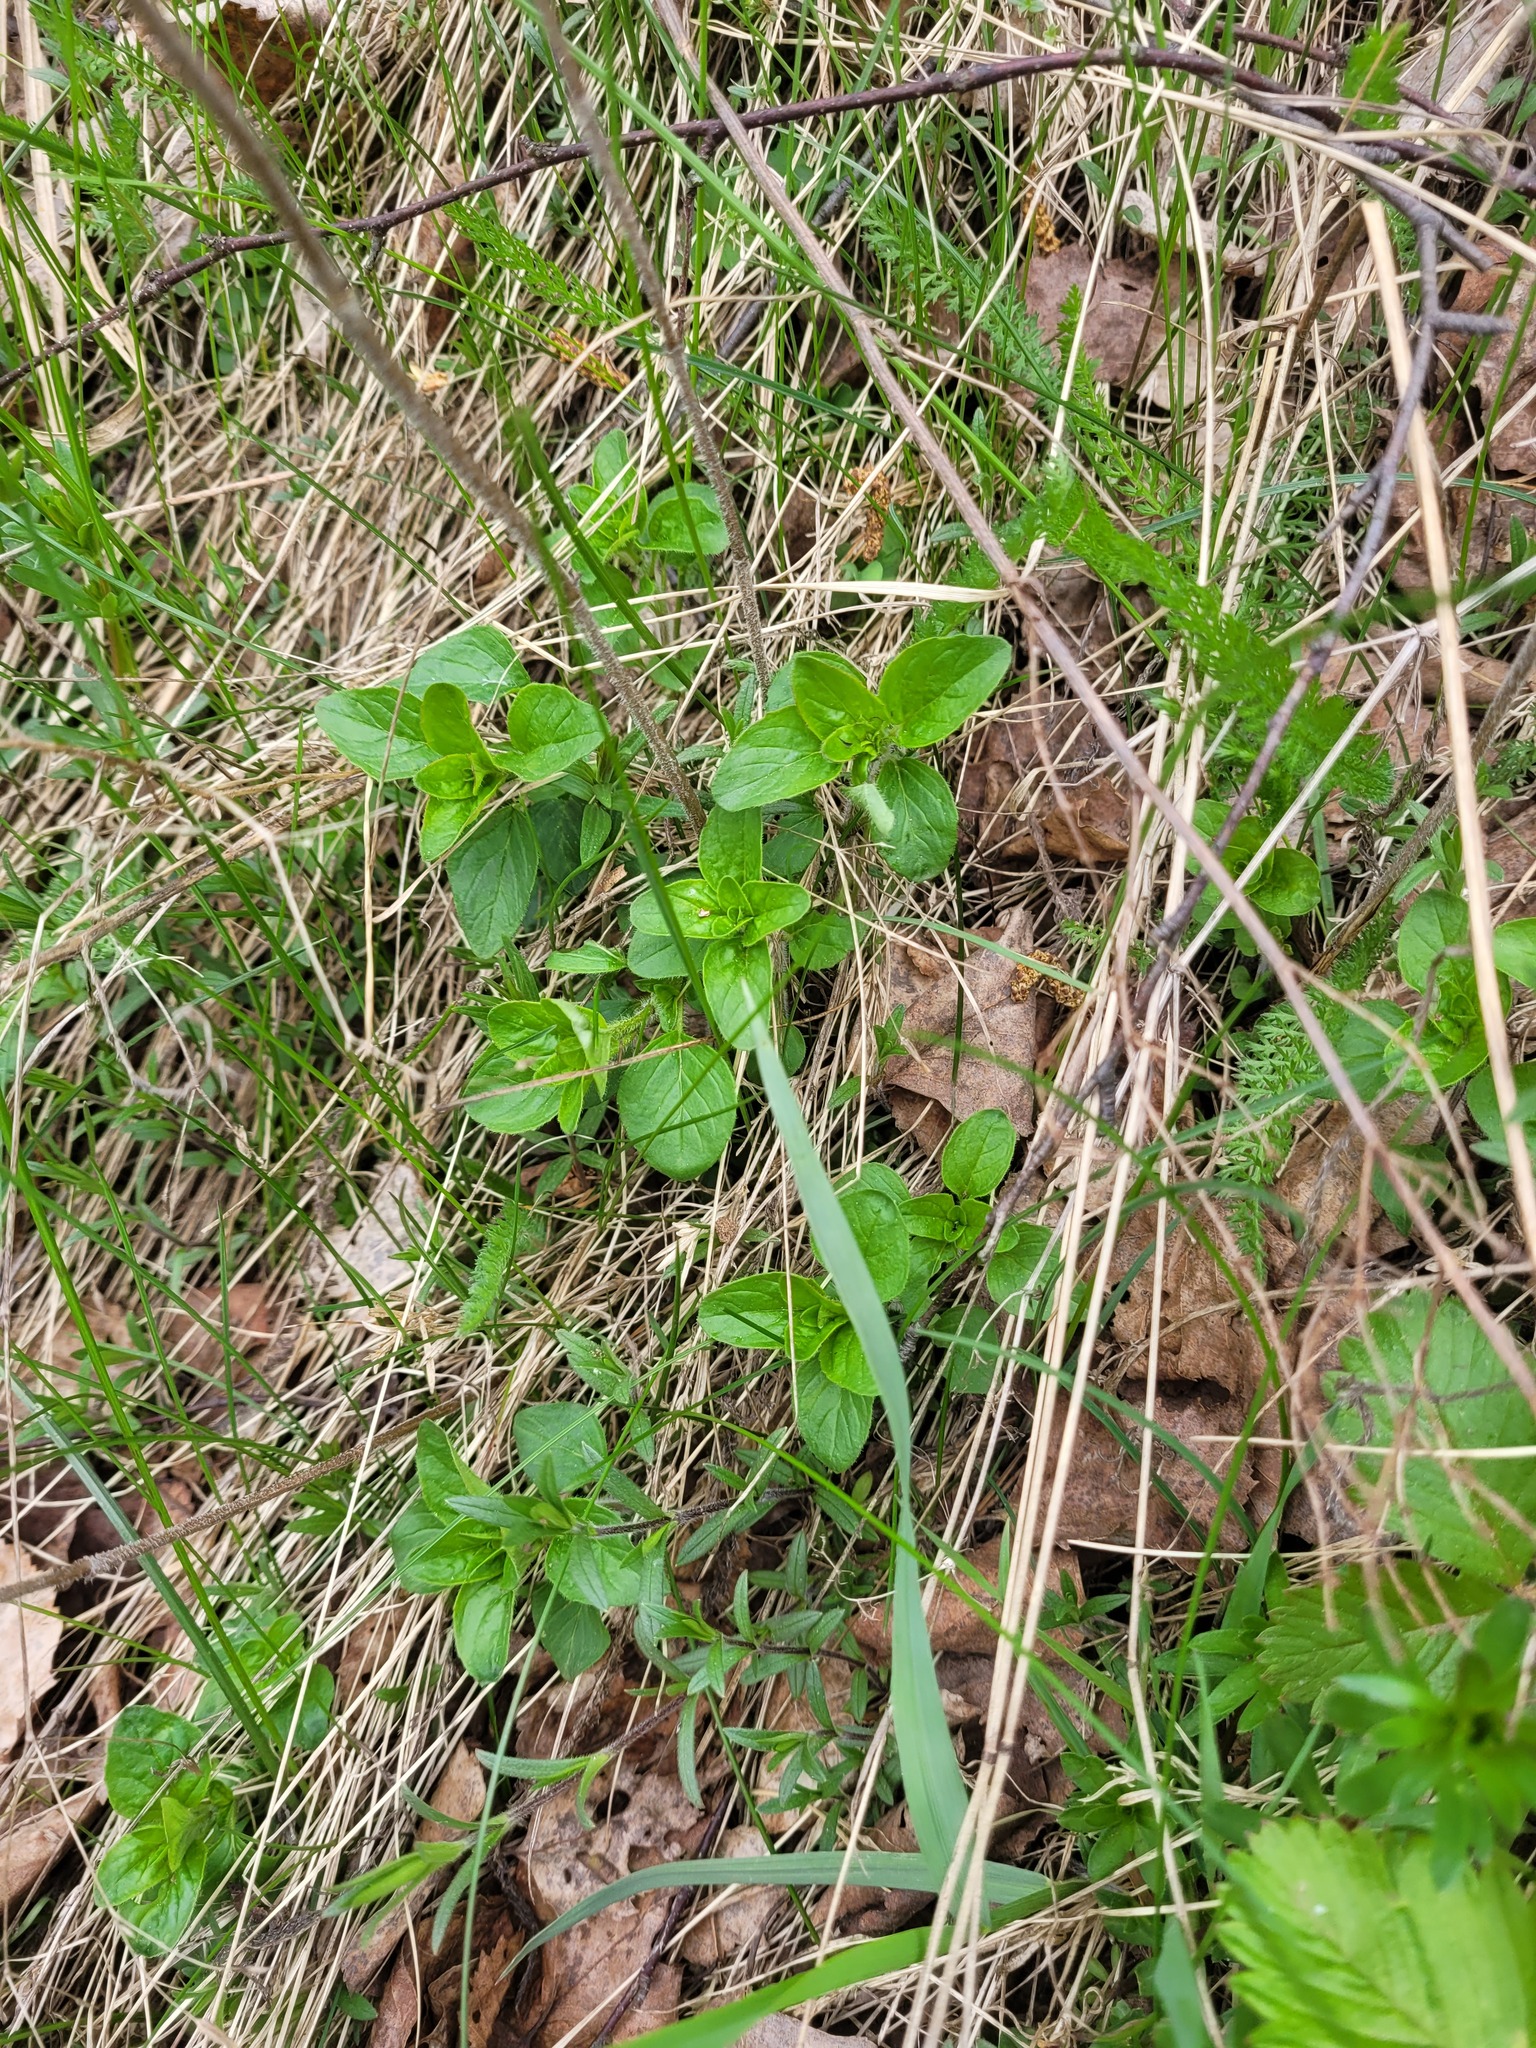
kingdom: Plantae
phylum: Tracheophyta
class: Magnoliopsida
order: Lamiales
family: Lamiaceae
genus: Origanum
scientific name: Origanum vulgare
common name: Wild marjoram
